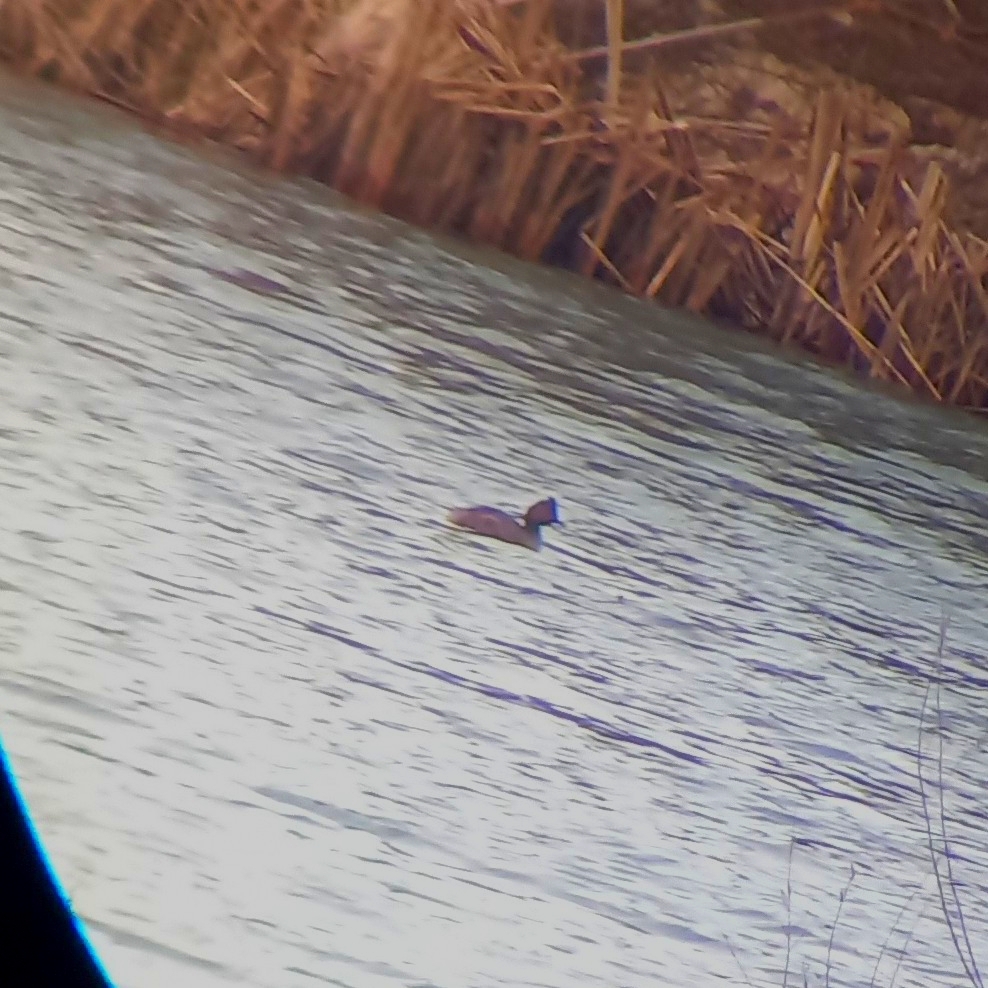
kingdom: Animalia
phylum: Chordata
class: Aves
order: Podicipediformes
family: Podicipedidae
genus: Podiceps
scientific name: Podiceps nigricollis
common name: Black-necked grebe
